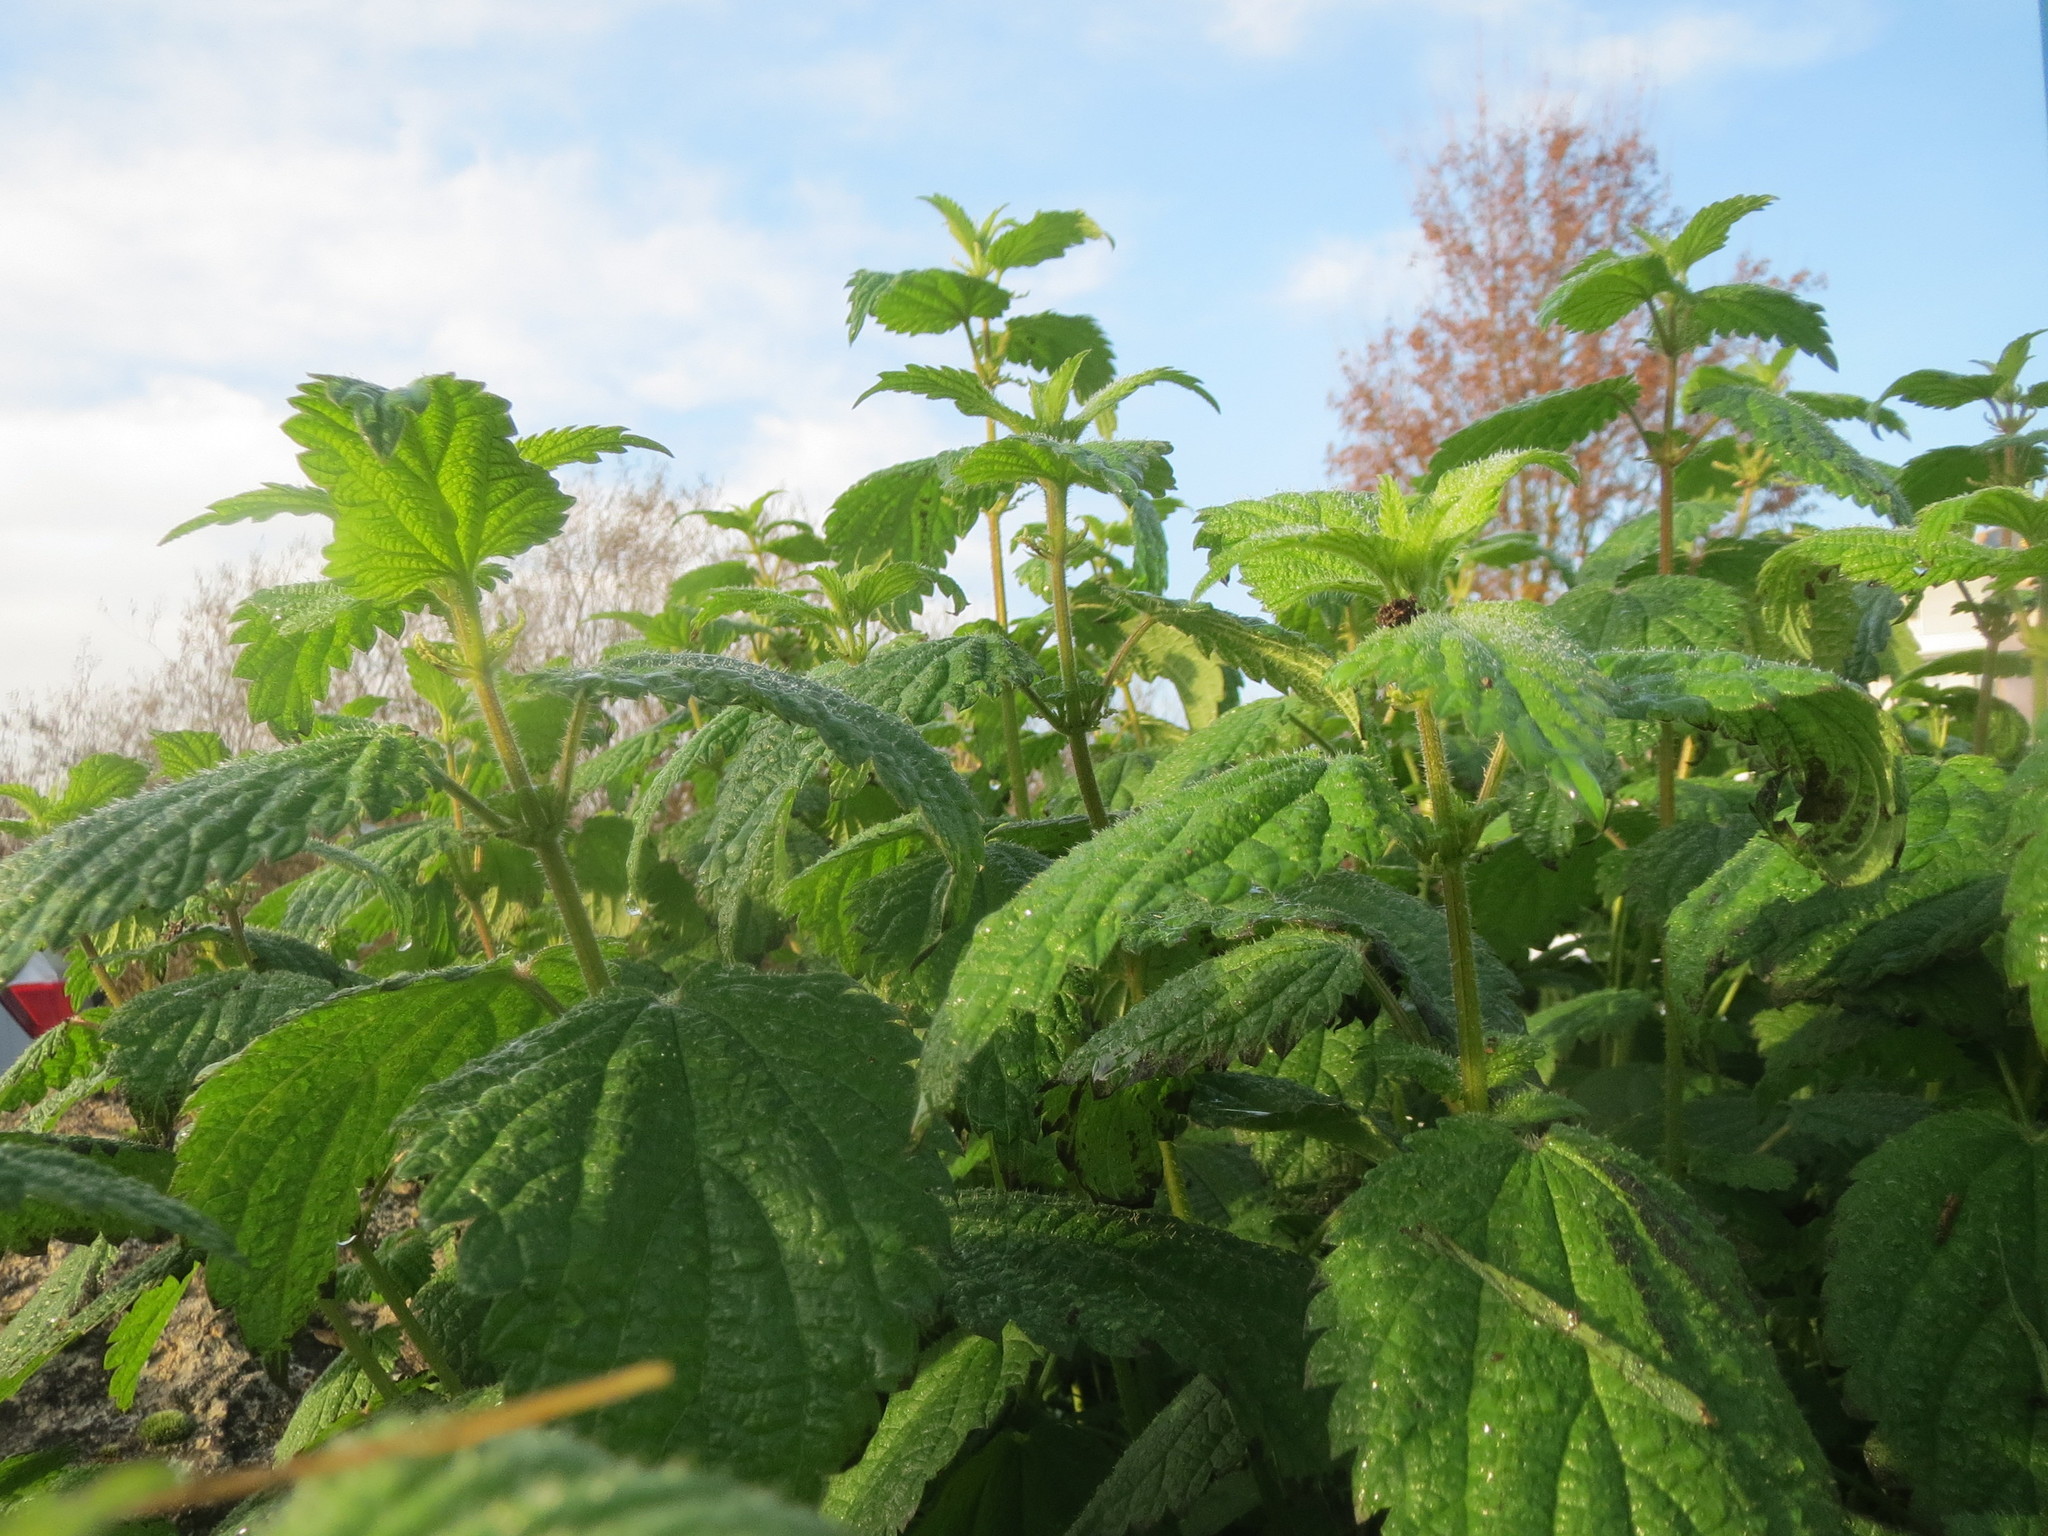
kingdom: Plantae
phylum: Tracheophyta
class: Magnoliopsida
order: Rosales
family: Urticaceae
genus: Urtica
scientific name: Urtica dioica
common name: Common nettle
